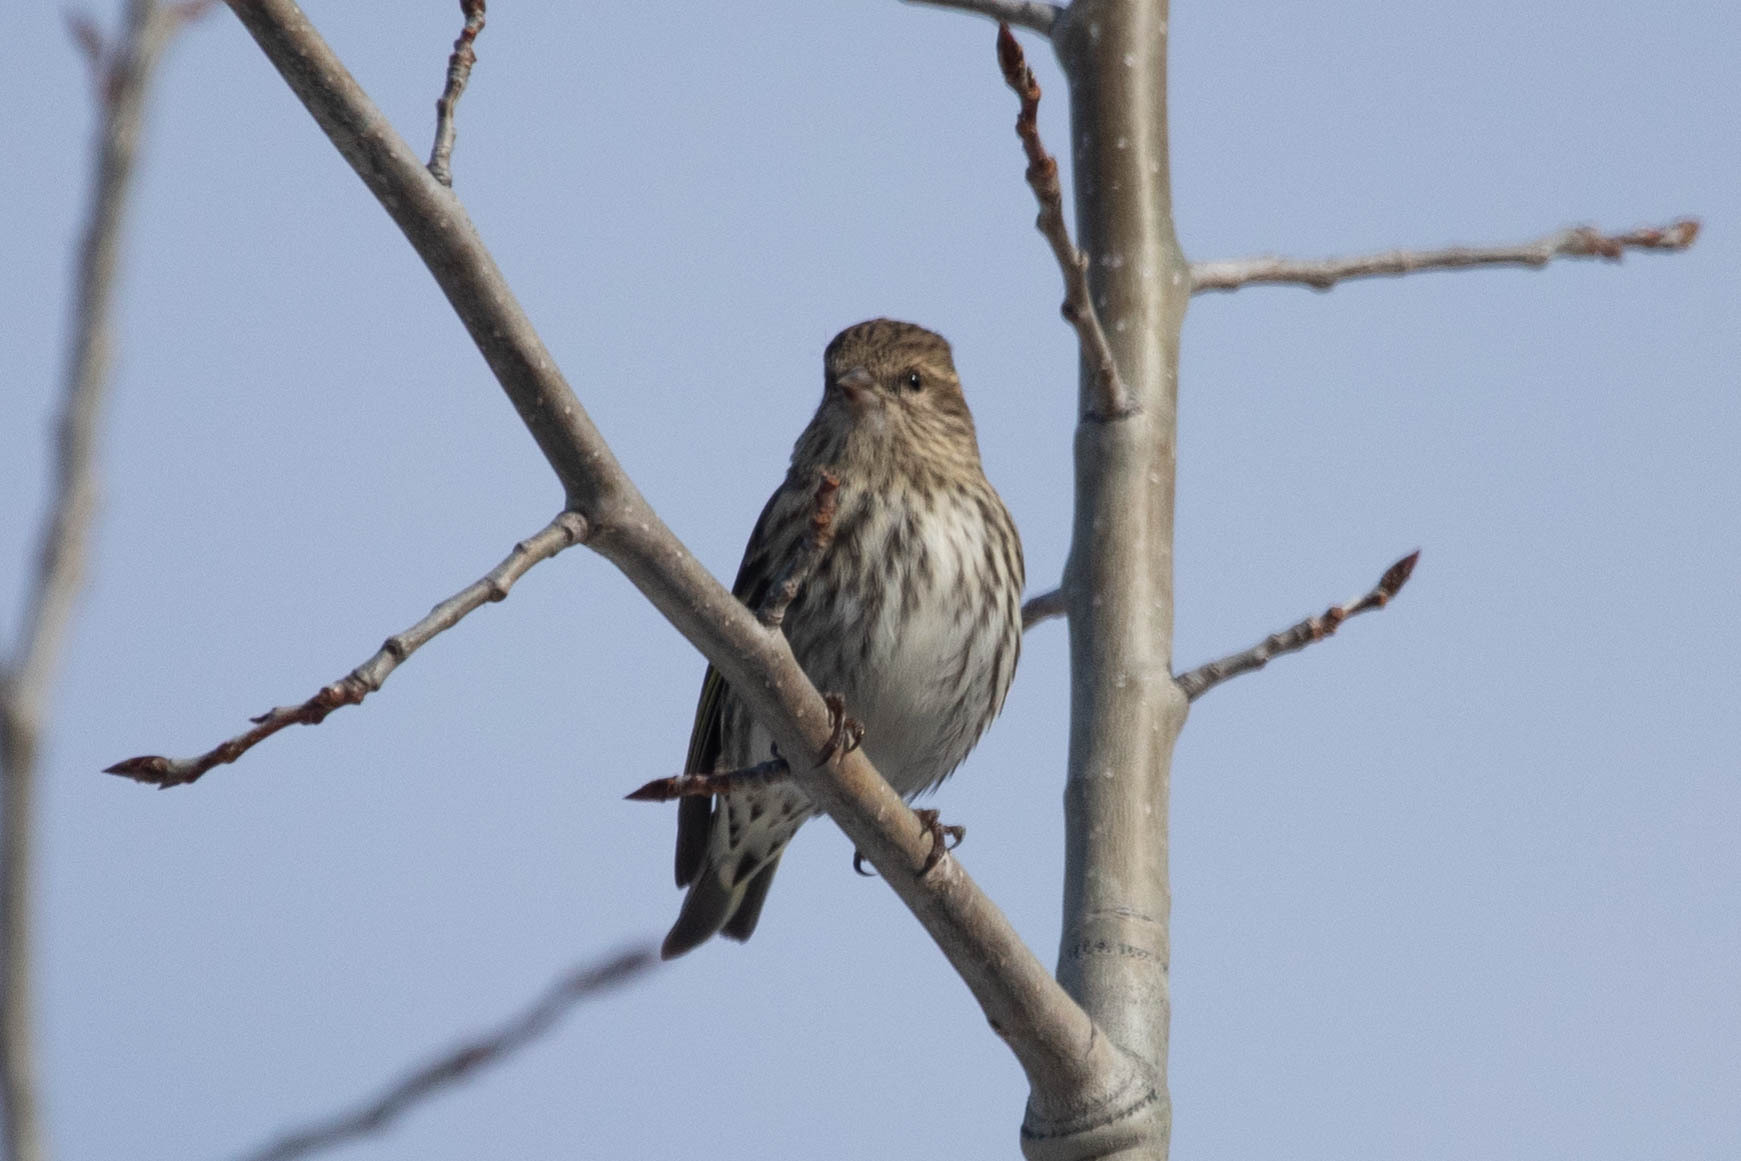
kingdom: Animalia
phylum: Chordata
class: Aves
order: Passeriformes
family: Fringillidae
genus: Spinus
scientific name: Spinus pinus
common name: Pine siskin
